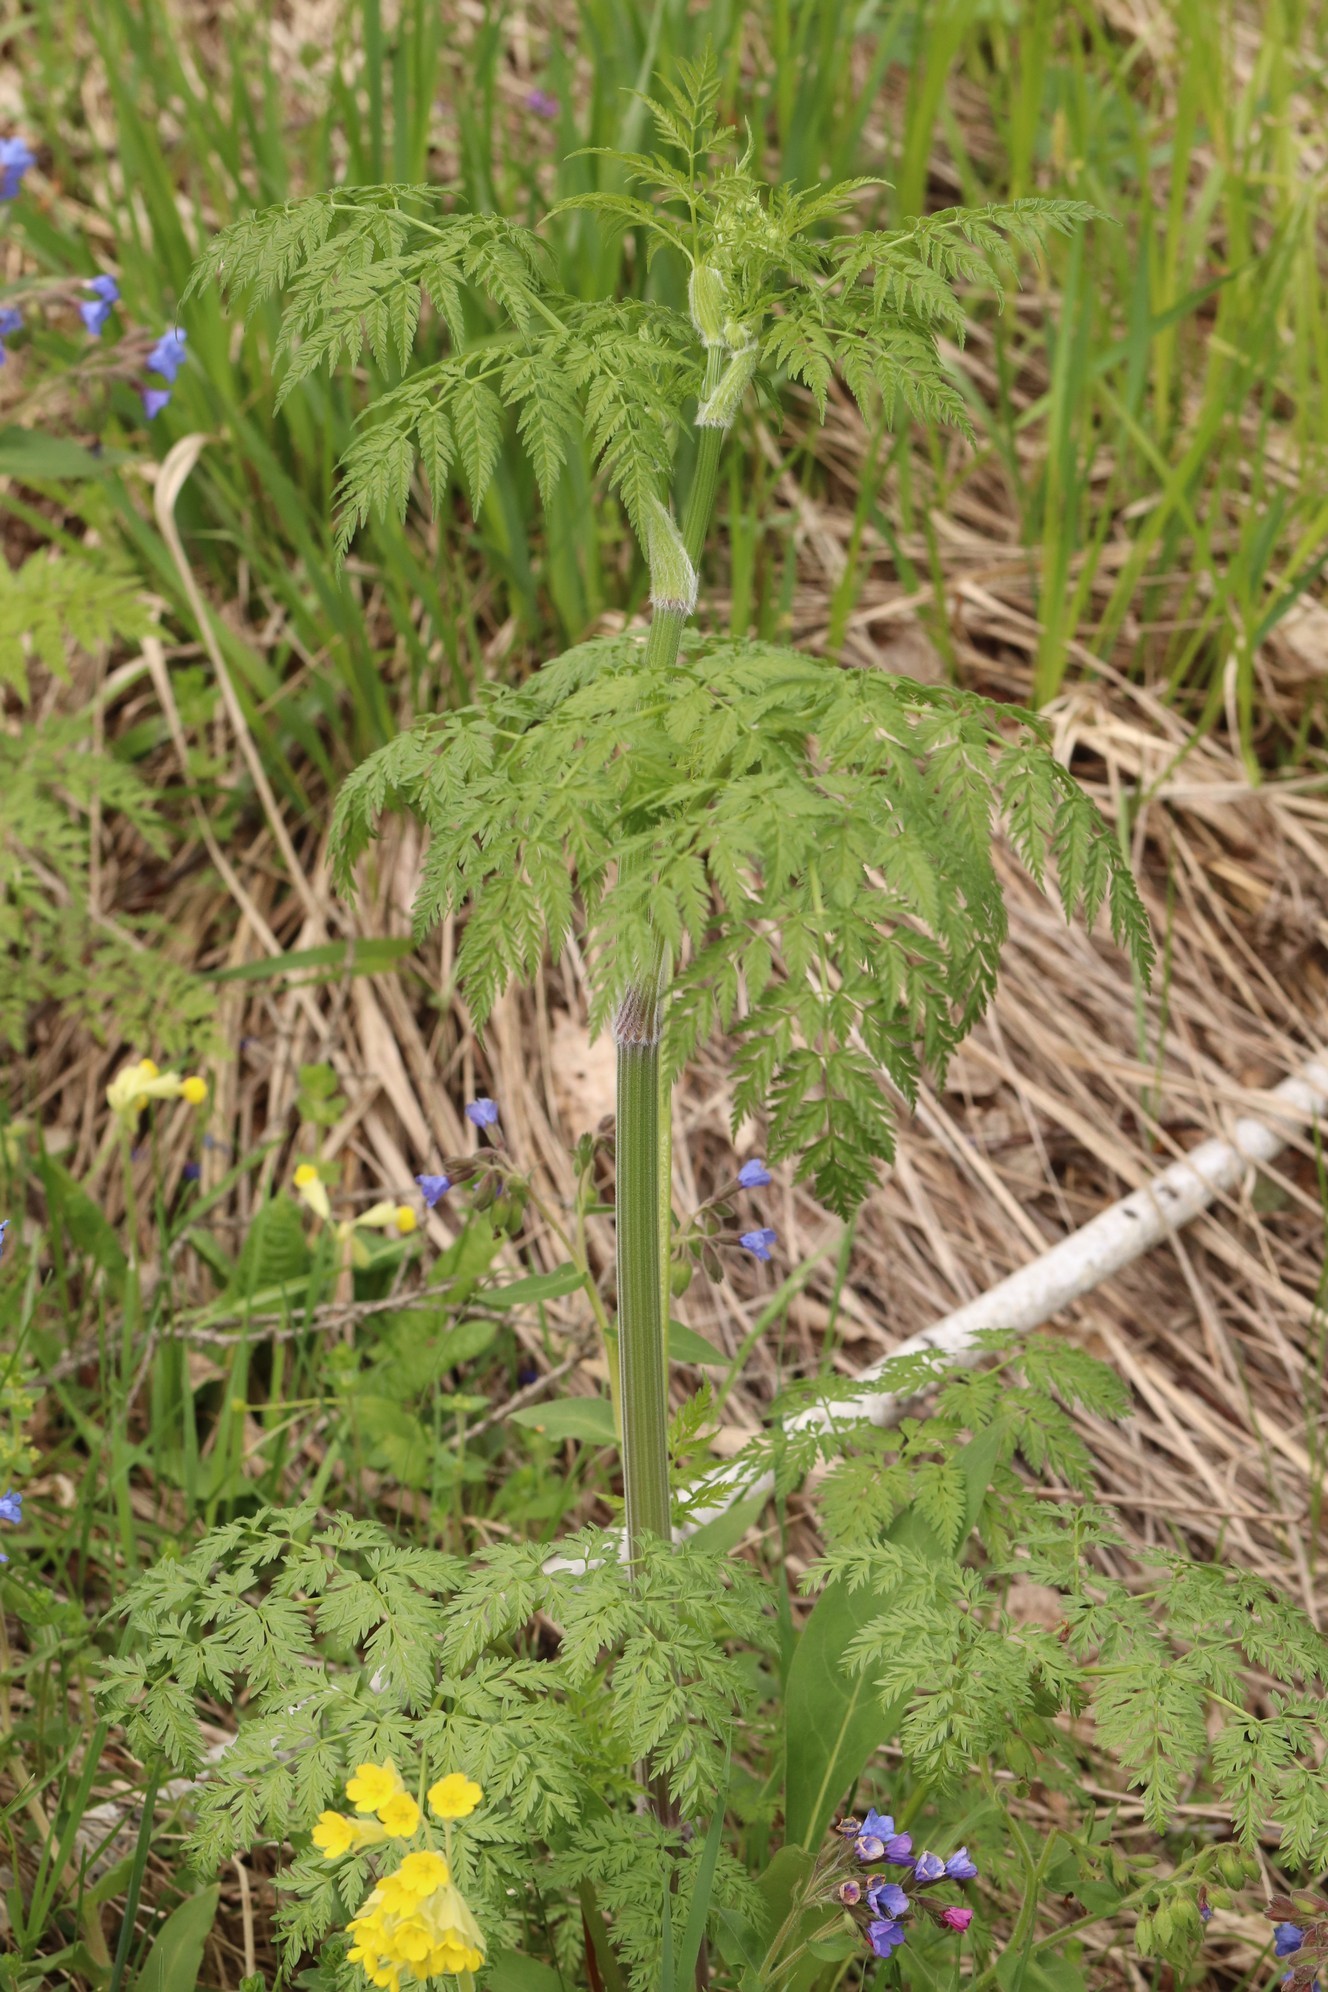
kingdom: Plantae
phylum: Tracheophyta
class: Magnoliopsida
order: Apiales
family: Apiaceae
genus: Anthriscus
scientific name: Anthriscus sylvestris
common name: Cow parsley
